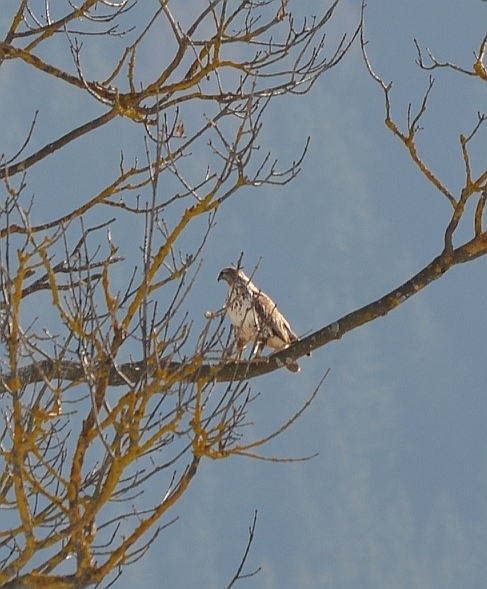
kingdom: Animalia
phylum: Chordata
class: Aves
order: Accipitriformes
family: Accipitridae
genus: Buteo
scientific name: Buteo buteo
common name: Common buzzard
